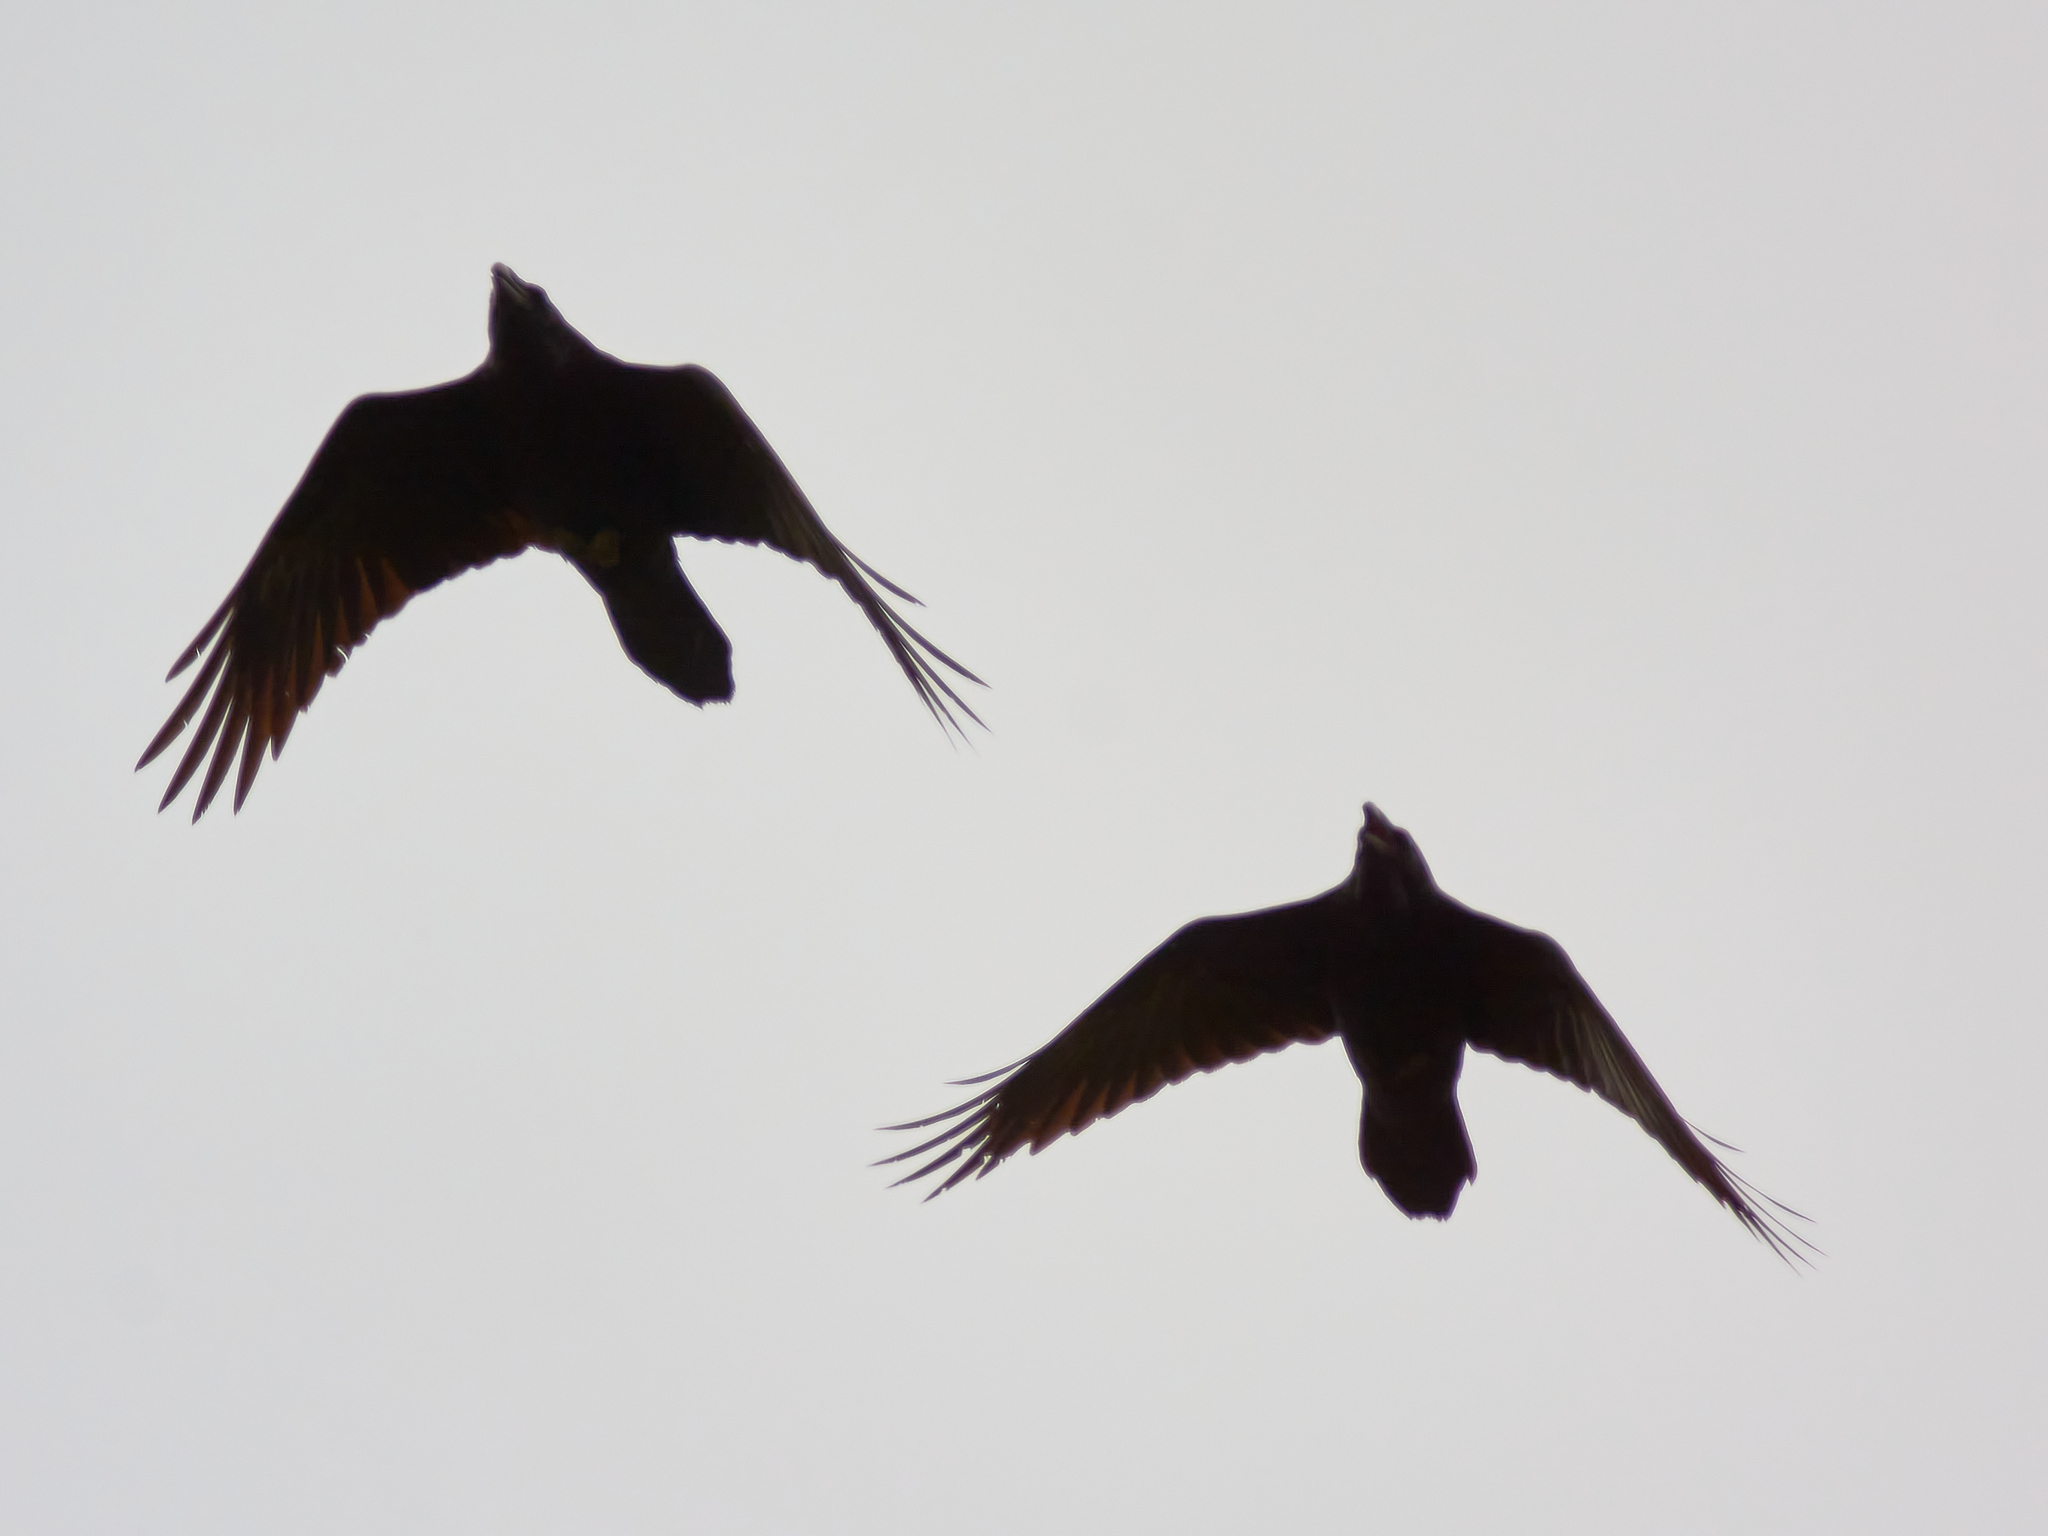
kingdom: Animalia
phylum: Chordata
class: Aves
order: Passeriformes
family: Corvidae
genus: Corvus
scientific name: Corvus corax
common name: Common raven
